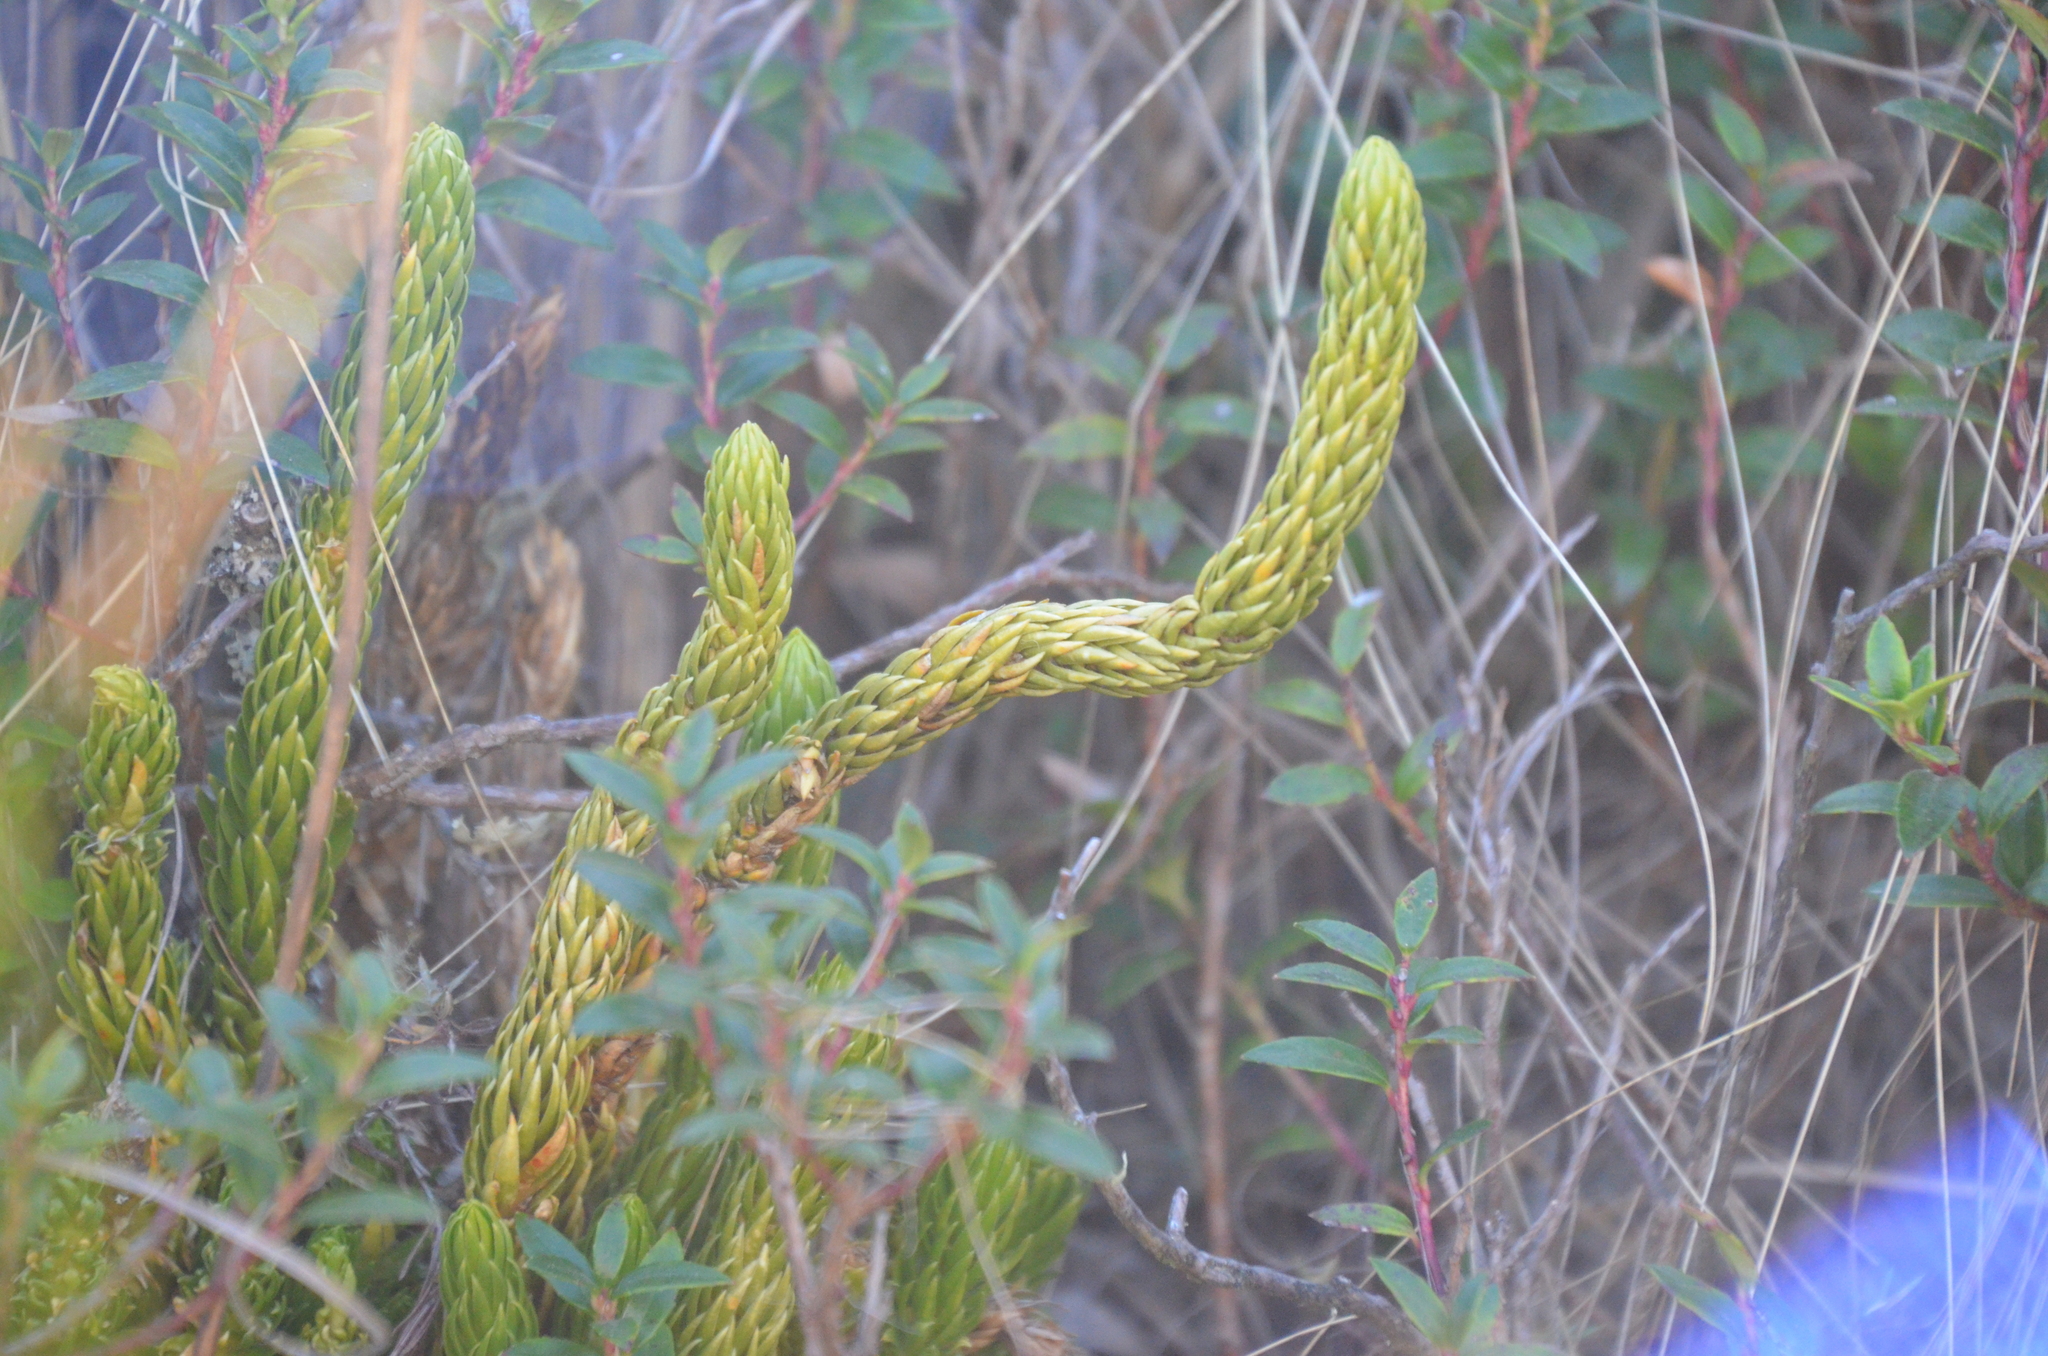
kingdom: Plantae
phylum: Tracheophyta
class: Lycopodiopsida
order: Lycopodiales
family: Lycopodiaceae
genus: Phlegmariurus
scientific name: Phlegmariurus saururus
